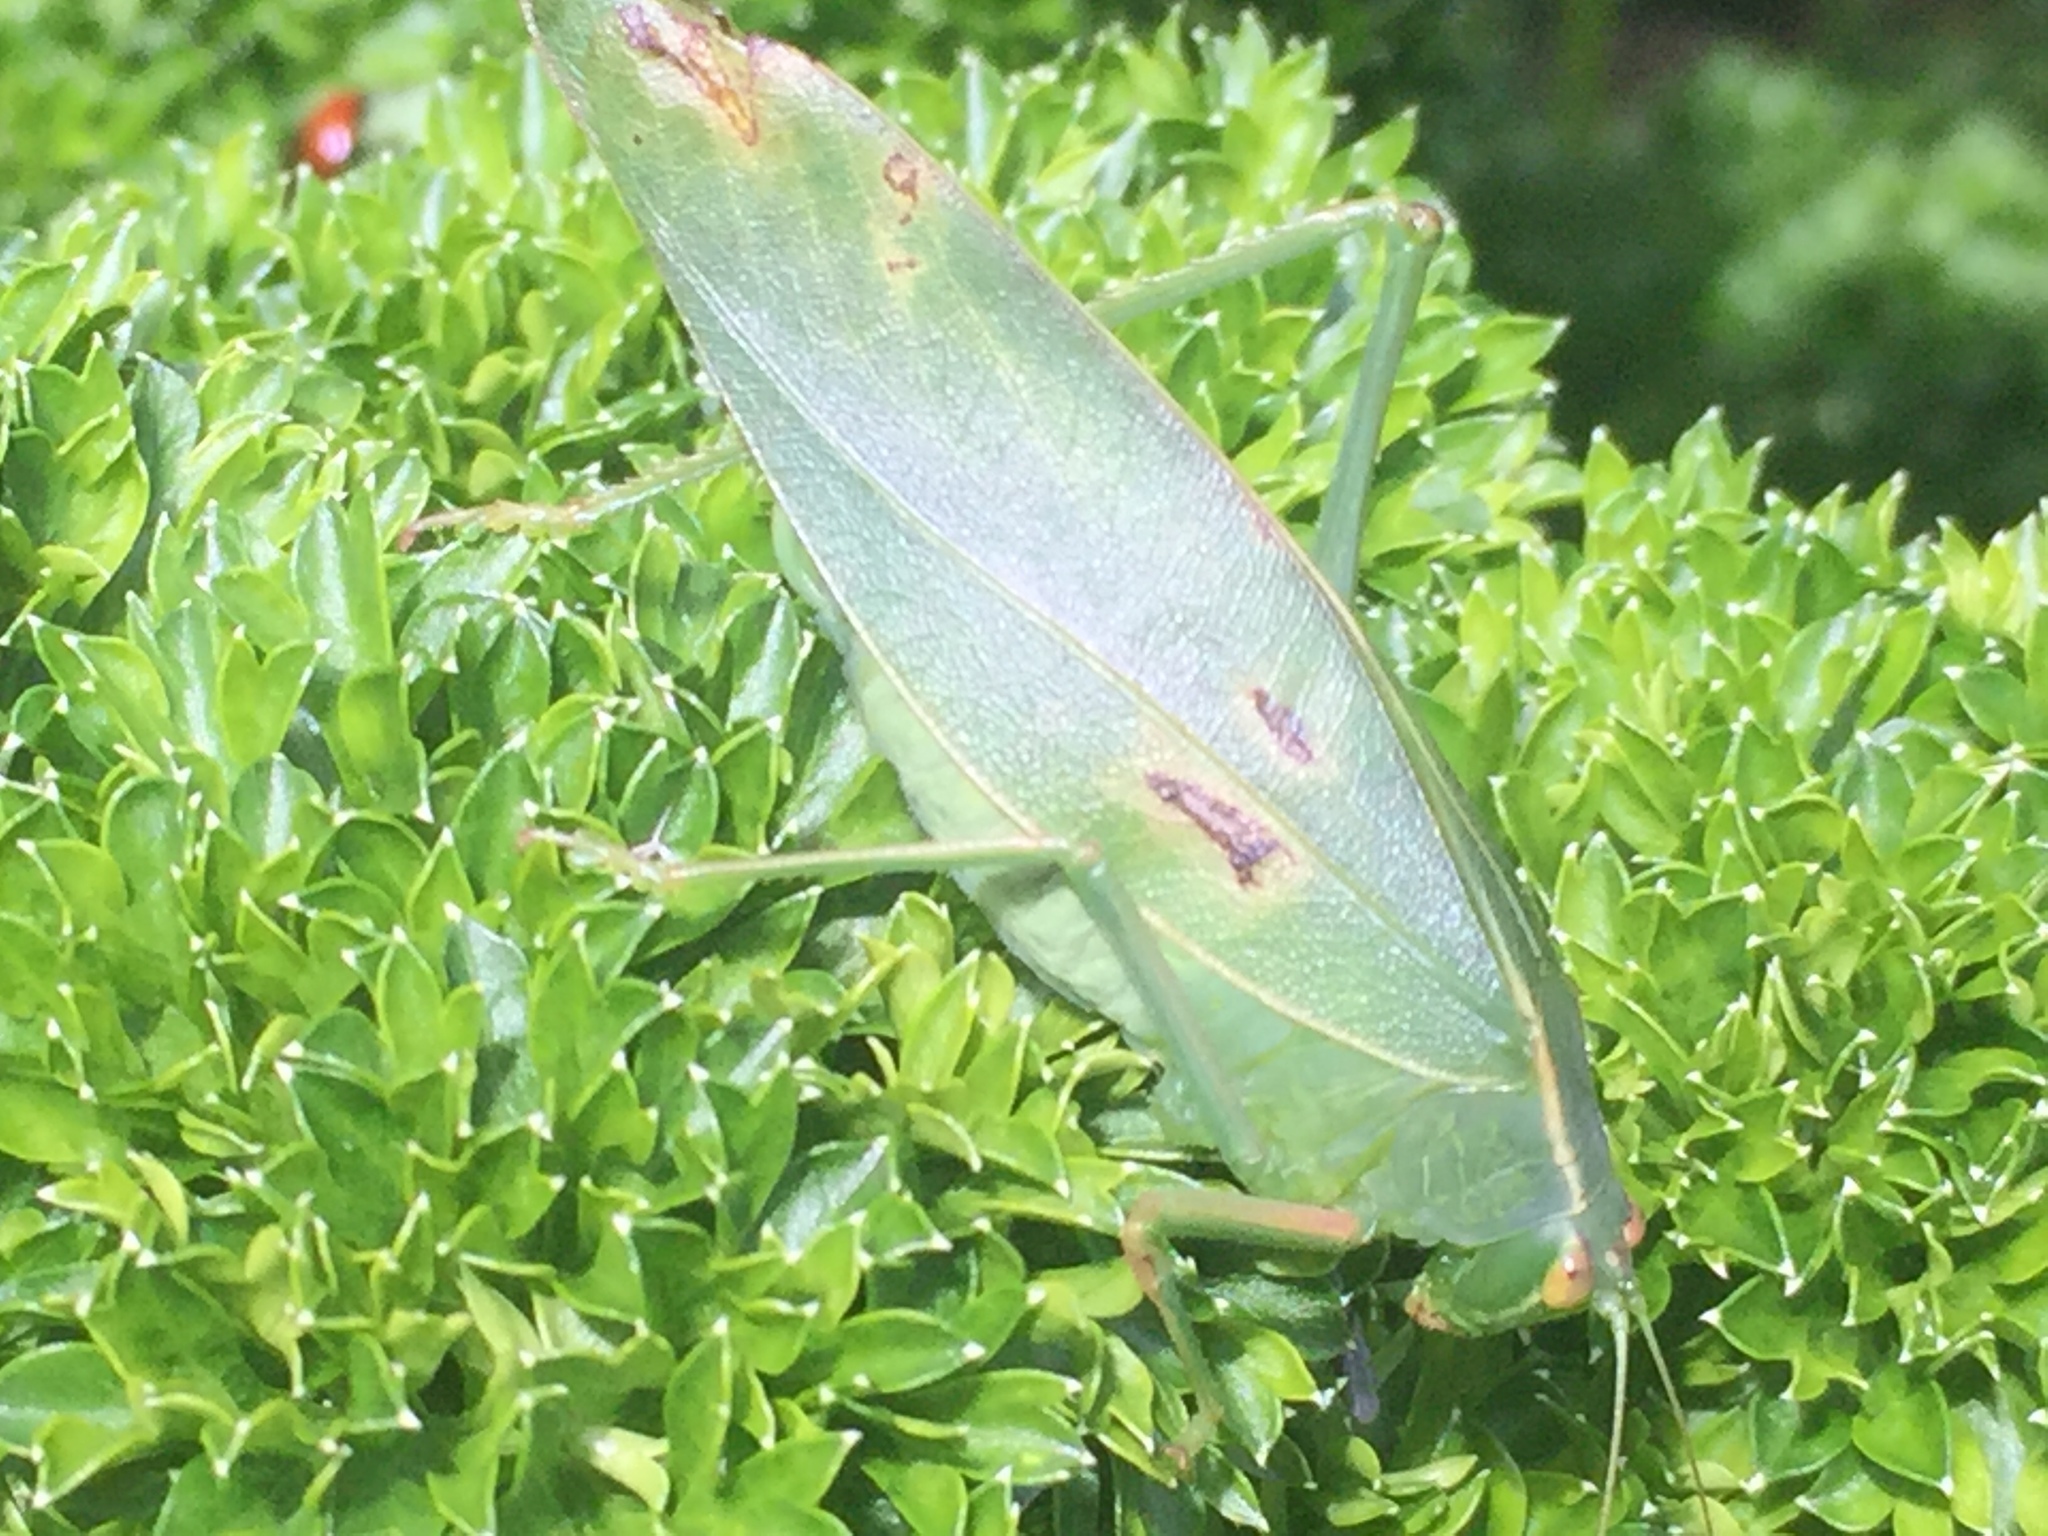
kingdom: Animalia
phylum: Arthropoda
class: Insecta
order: Orthoptera
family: Tettigoniidae
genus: Caedicia
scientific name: Caedicia simplex
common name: Common garden katydid
